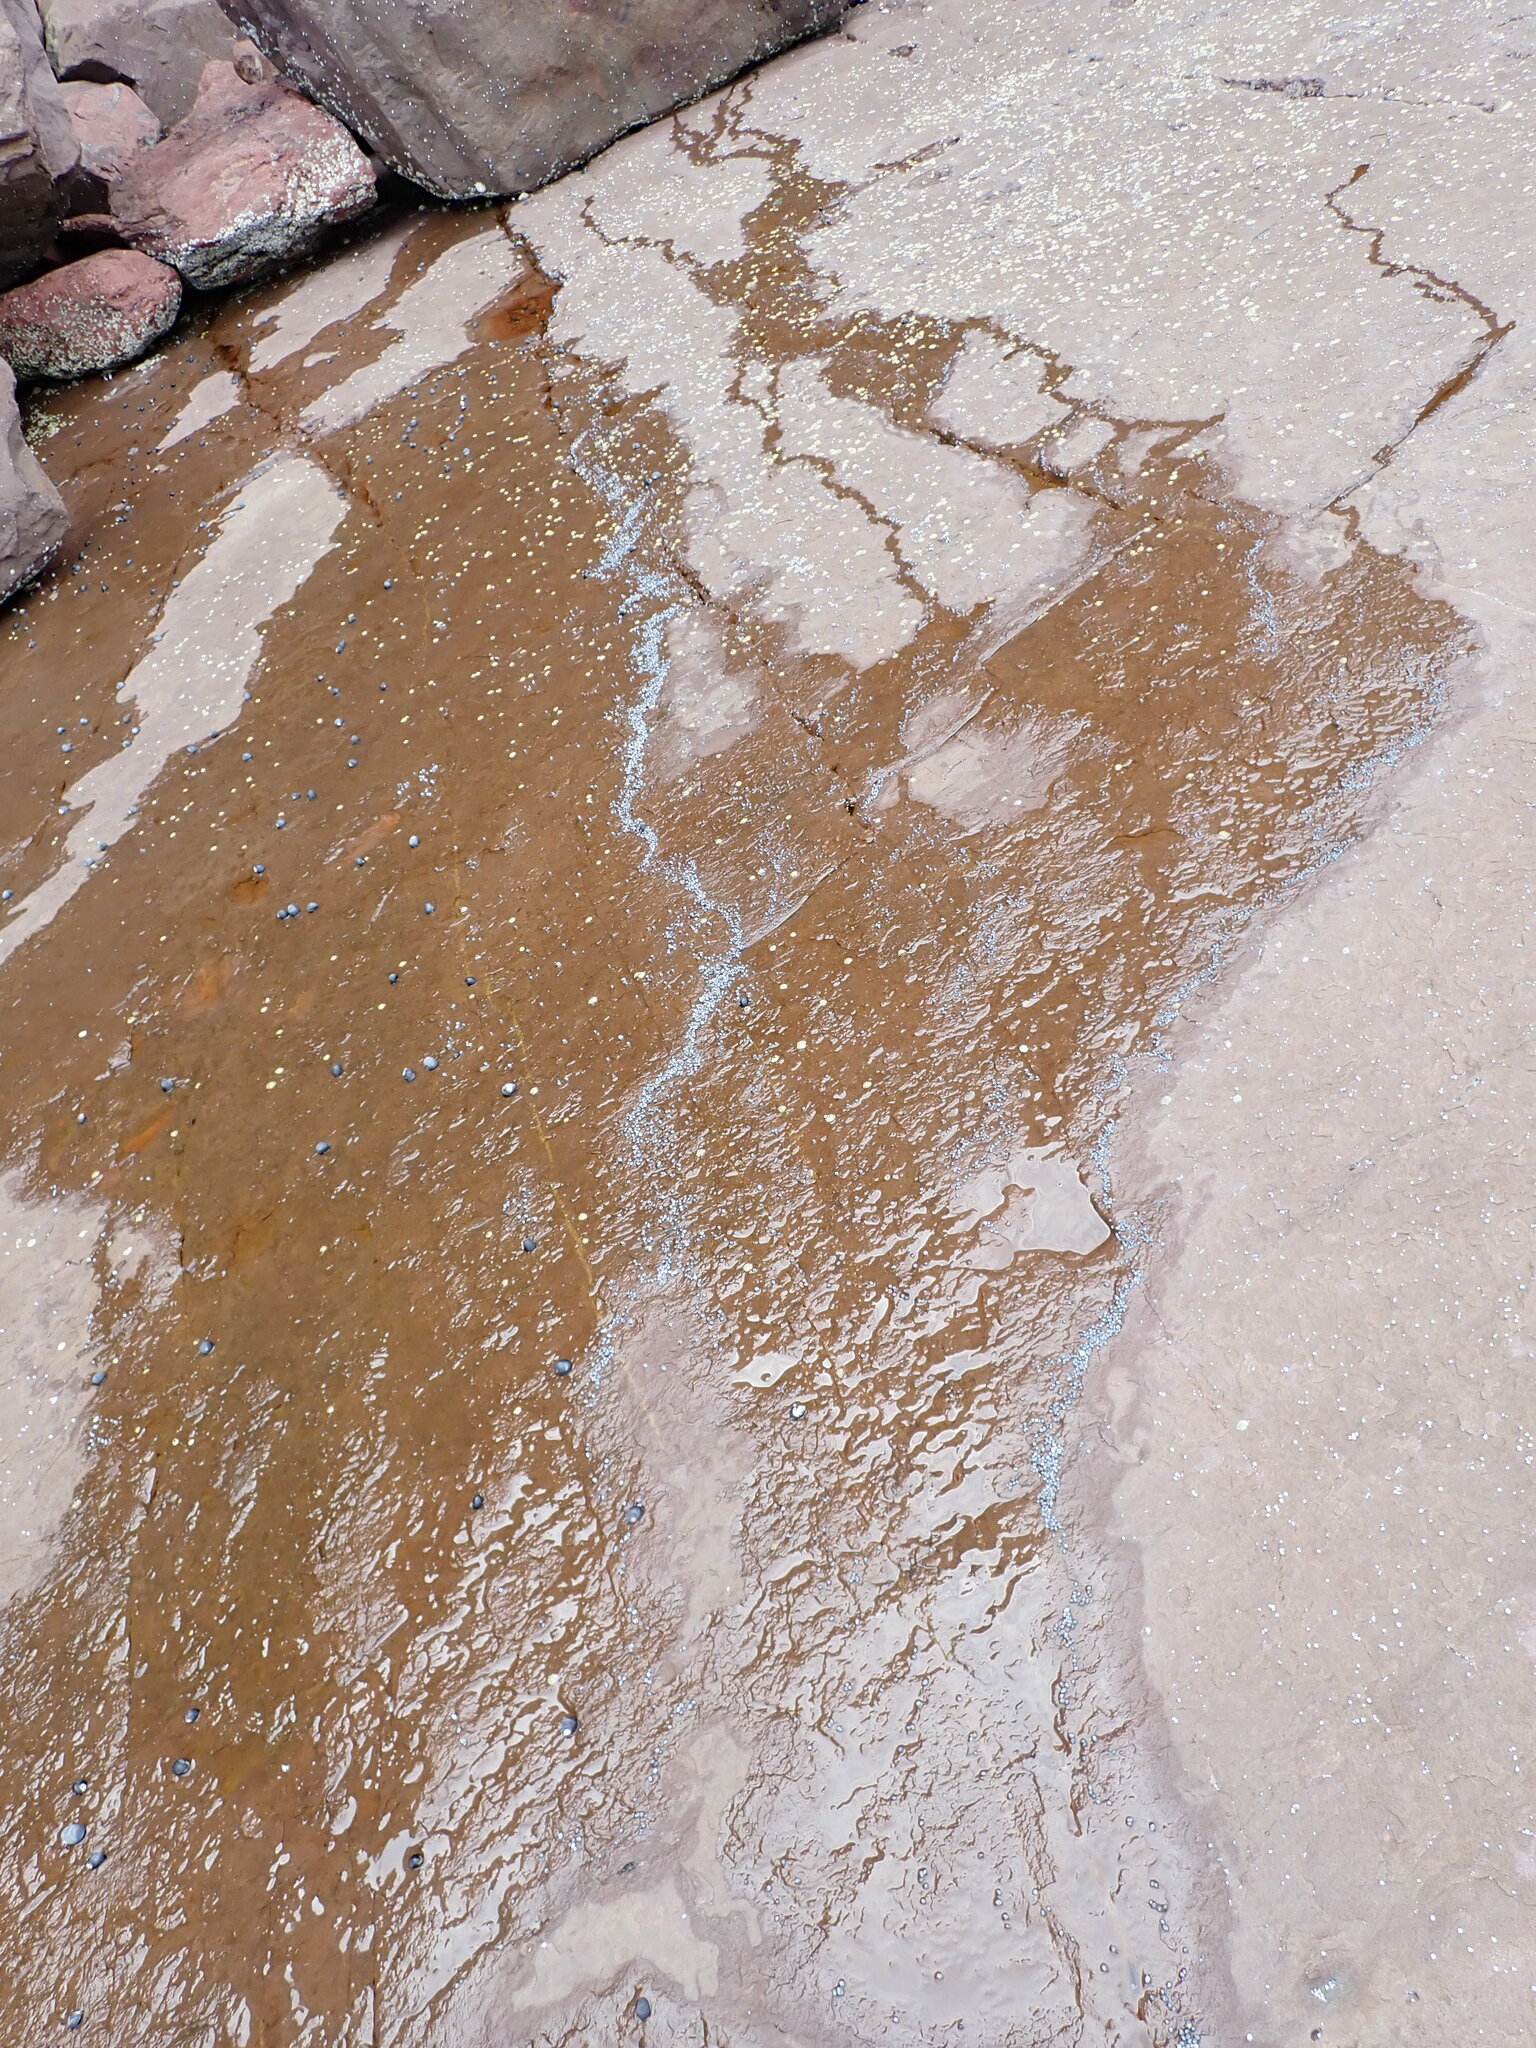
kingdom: Animalia
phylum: Mollusca
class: Gastropoda
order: Littorinimorpha
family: Littorinidae
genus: Austrolittorina
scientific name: Austrolittorina unifasciata
